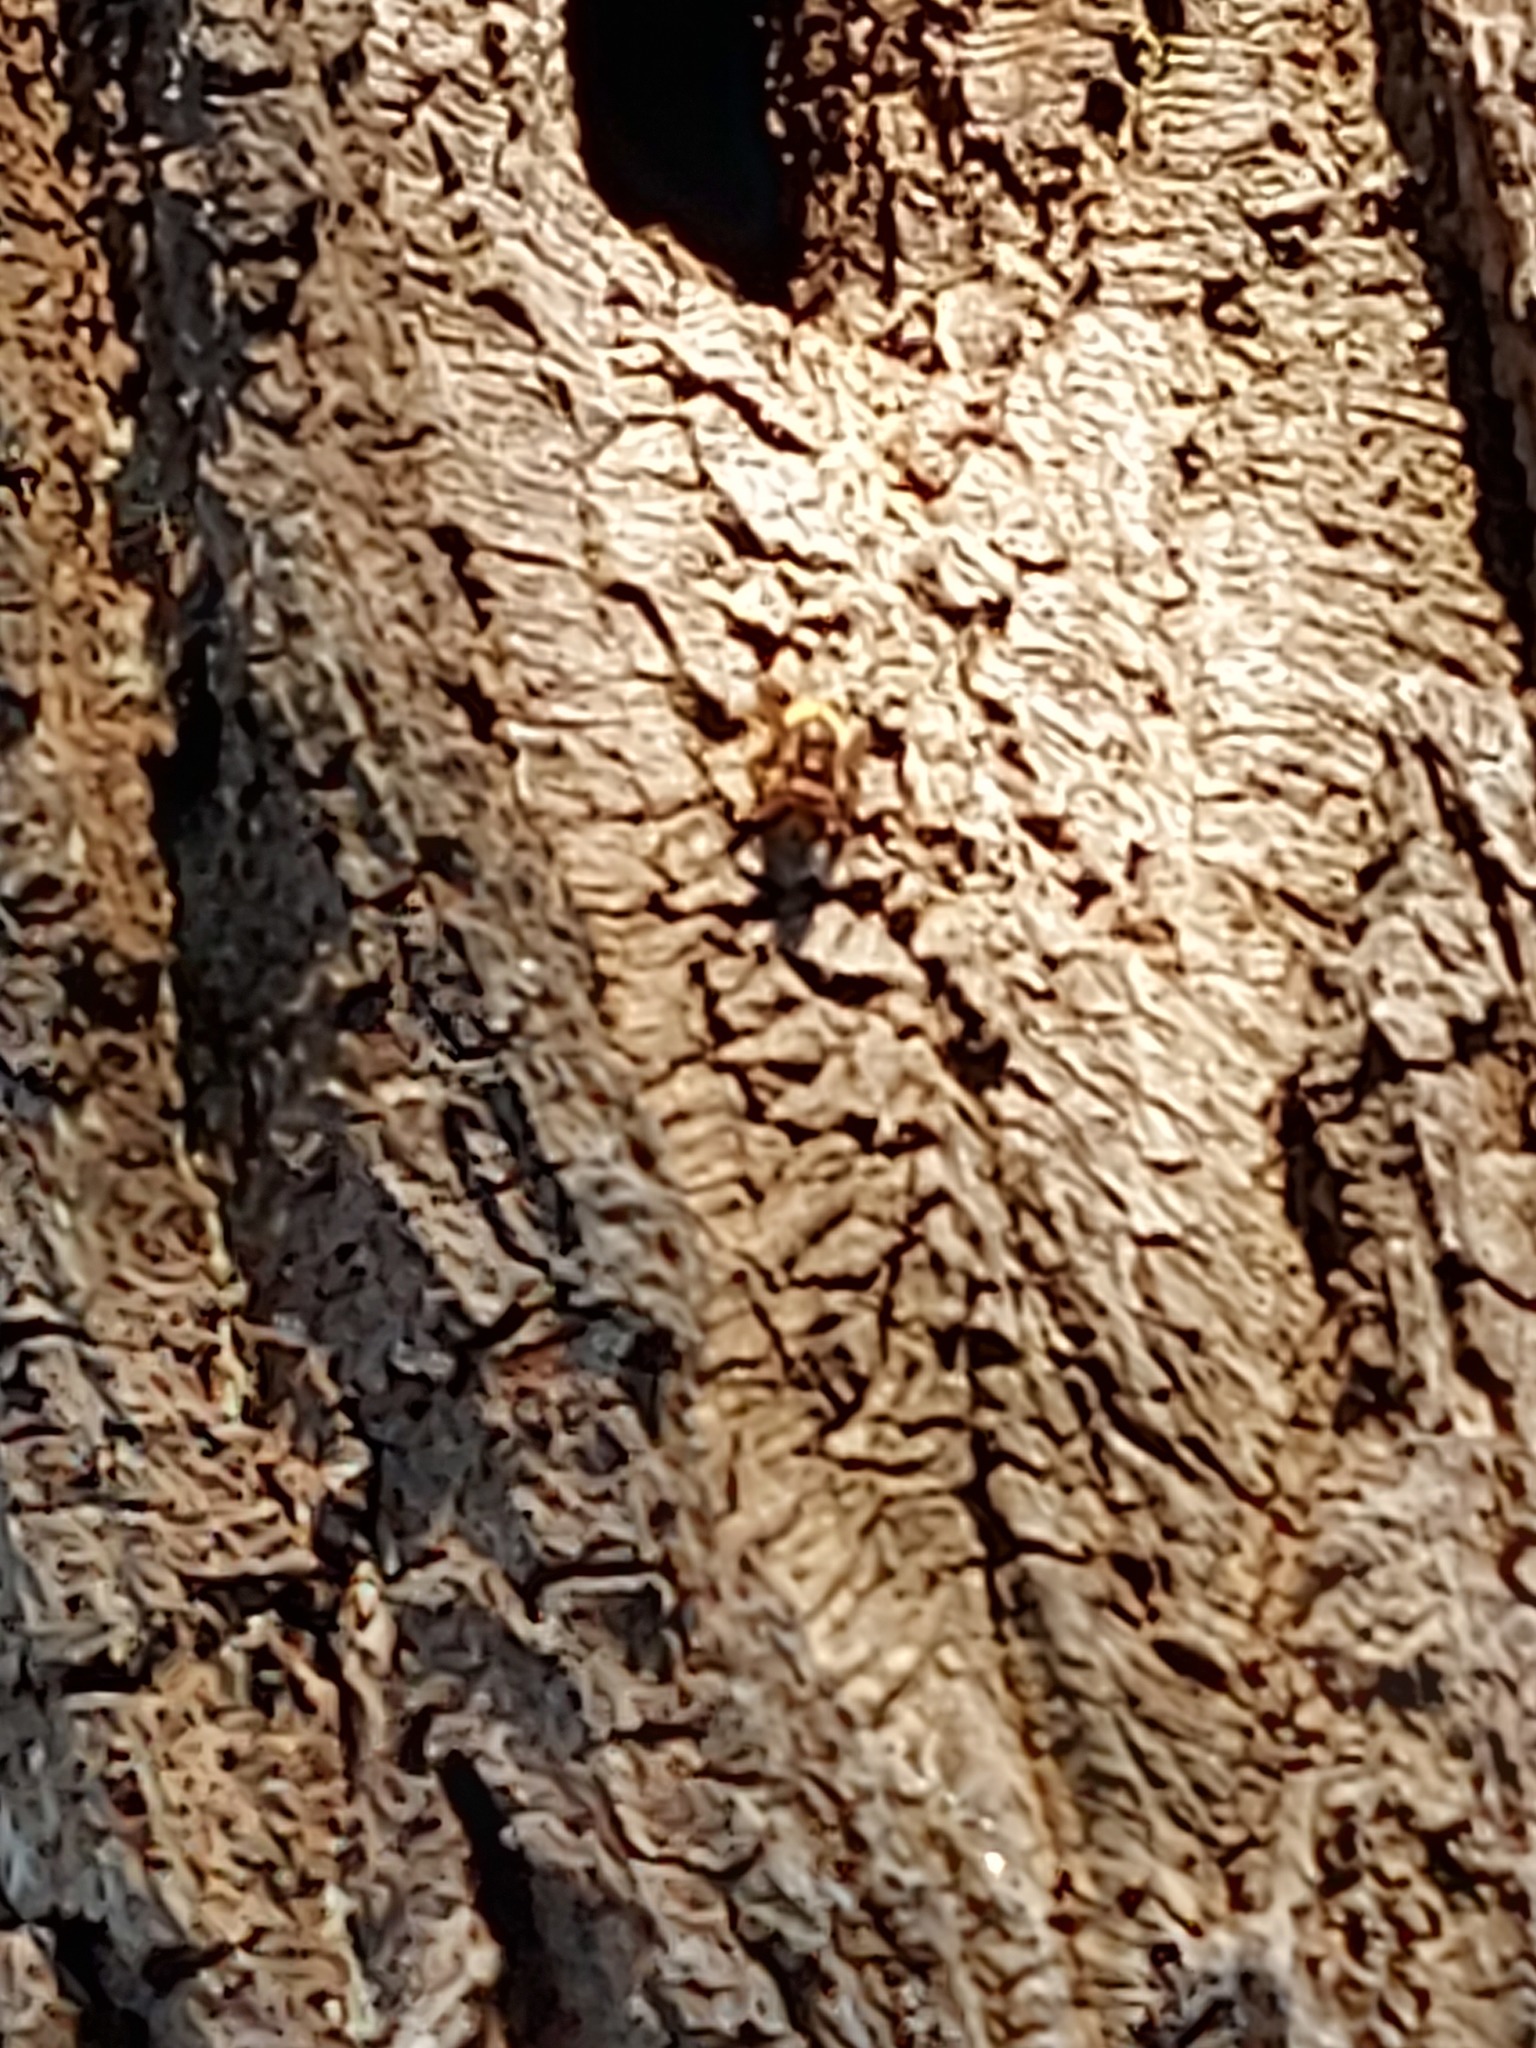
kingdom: Animalia
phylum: Arthropoda
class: Insecta
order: Hymenoptera
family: Vespidae
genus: Vespa
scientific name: Vespa crabro
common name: Hornet
